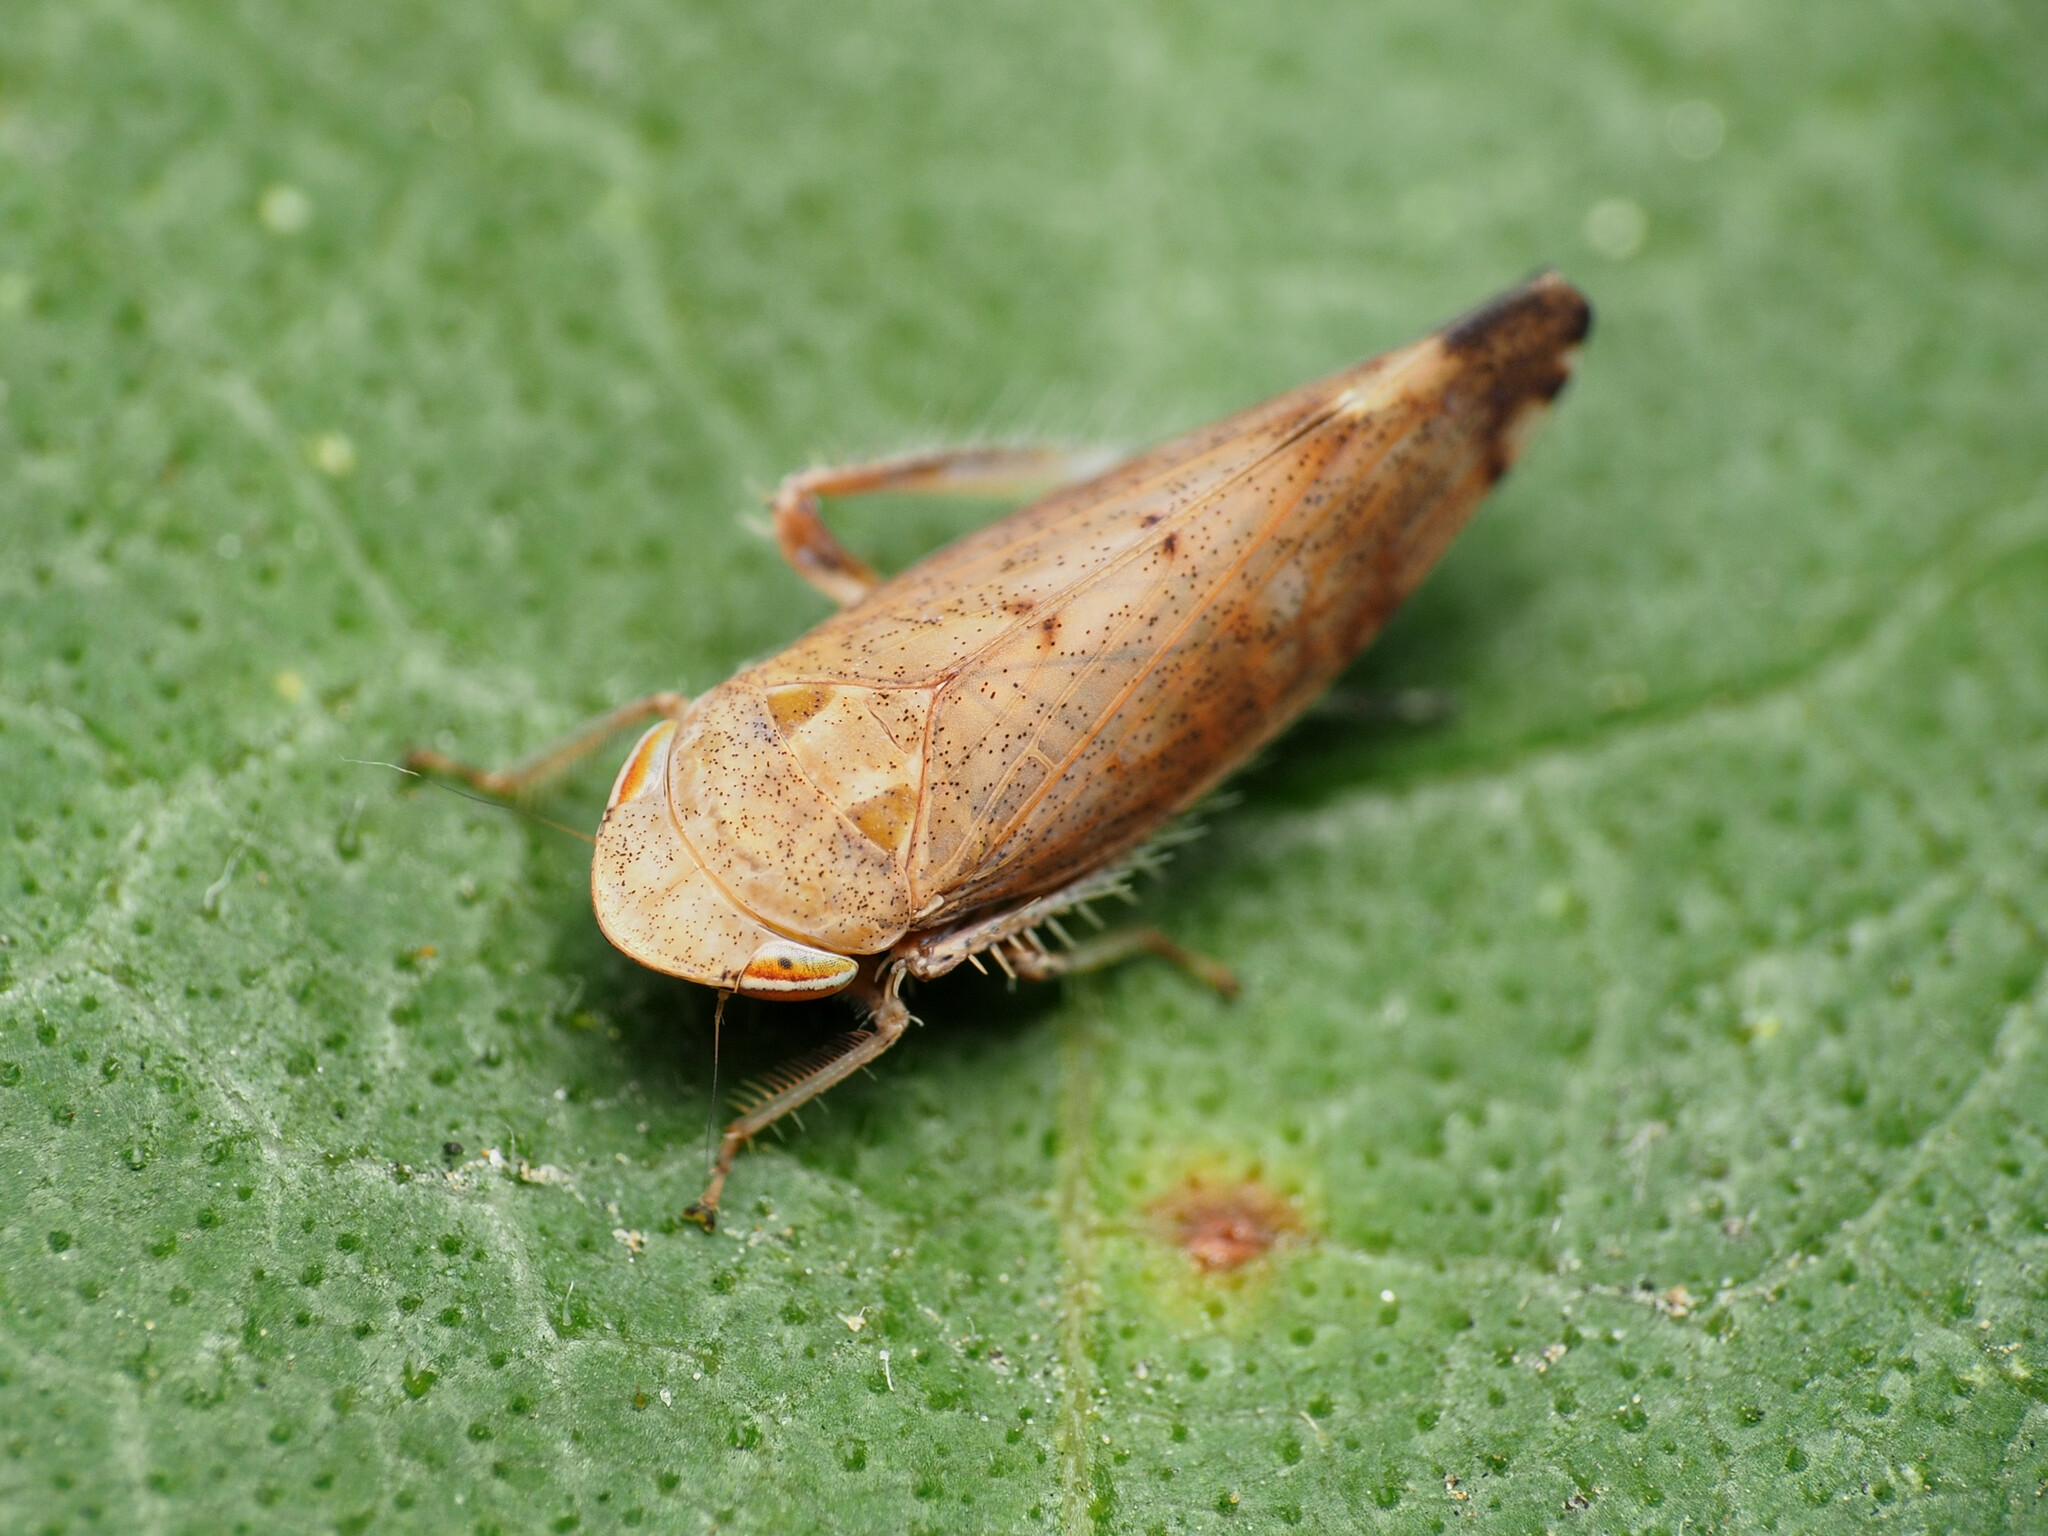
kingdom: Animalia
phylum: Arthropoda
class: Insecta
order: Hemiptera
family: Cicadellidae
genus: Fieberiella
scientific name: Fieberiella florii
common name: Flor’s leafhopper
